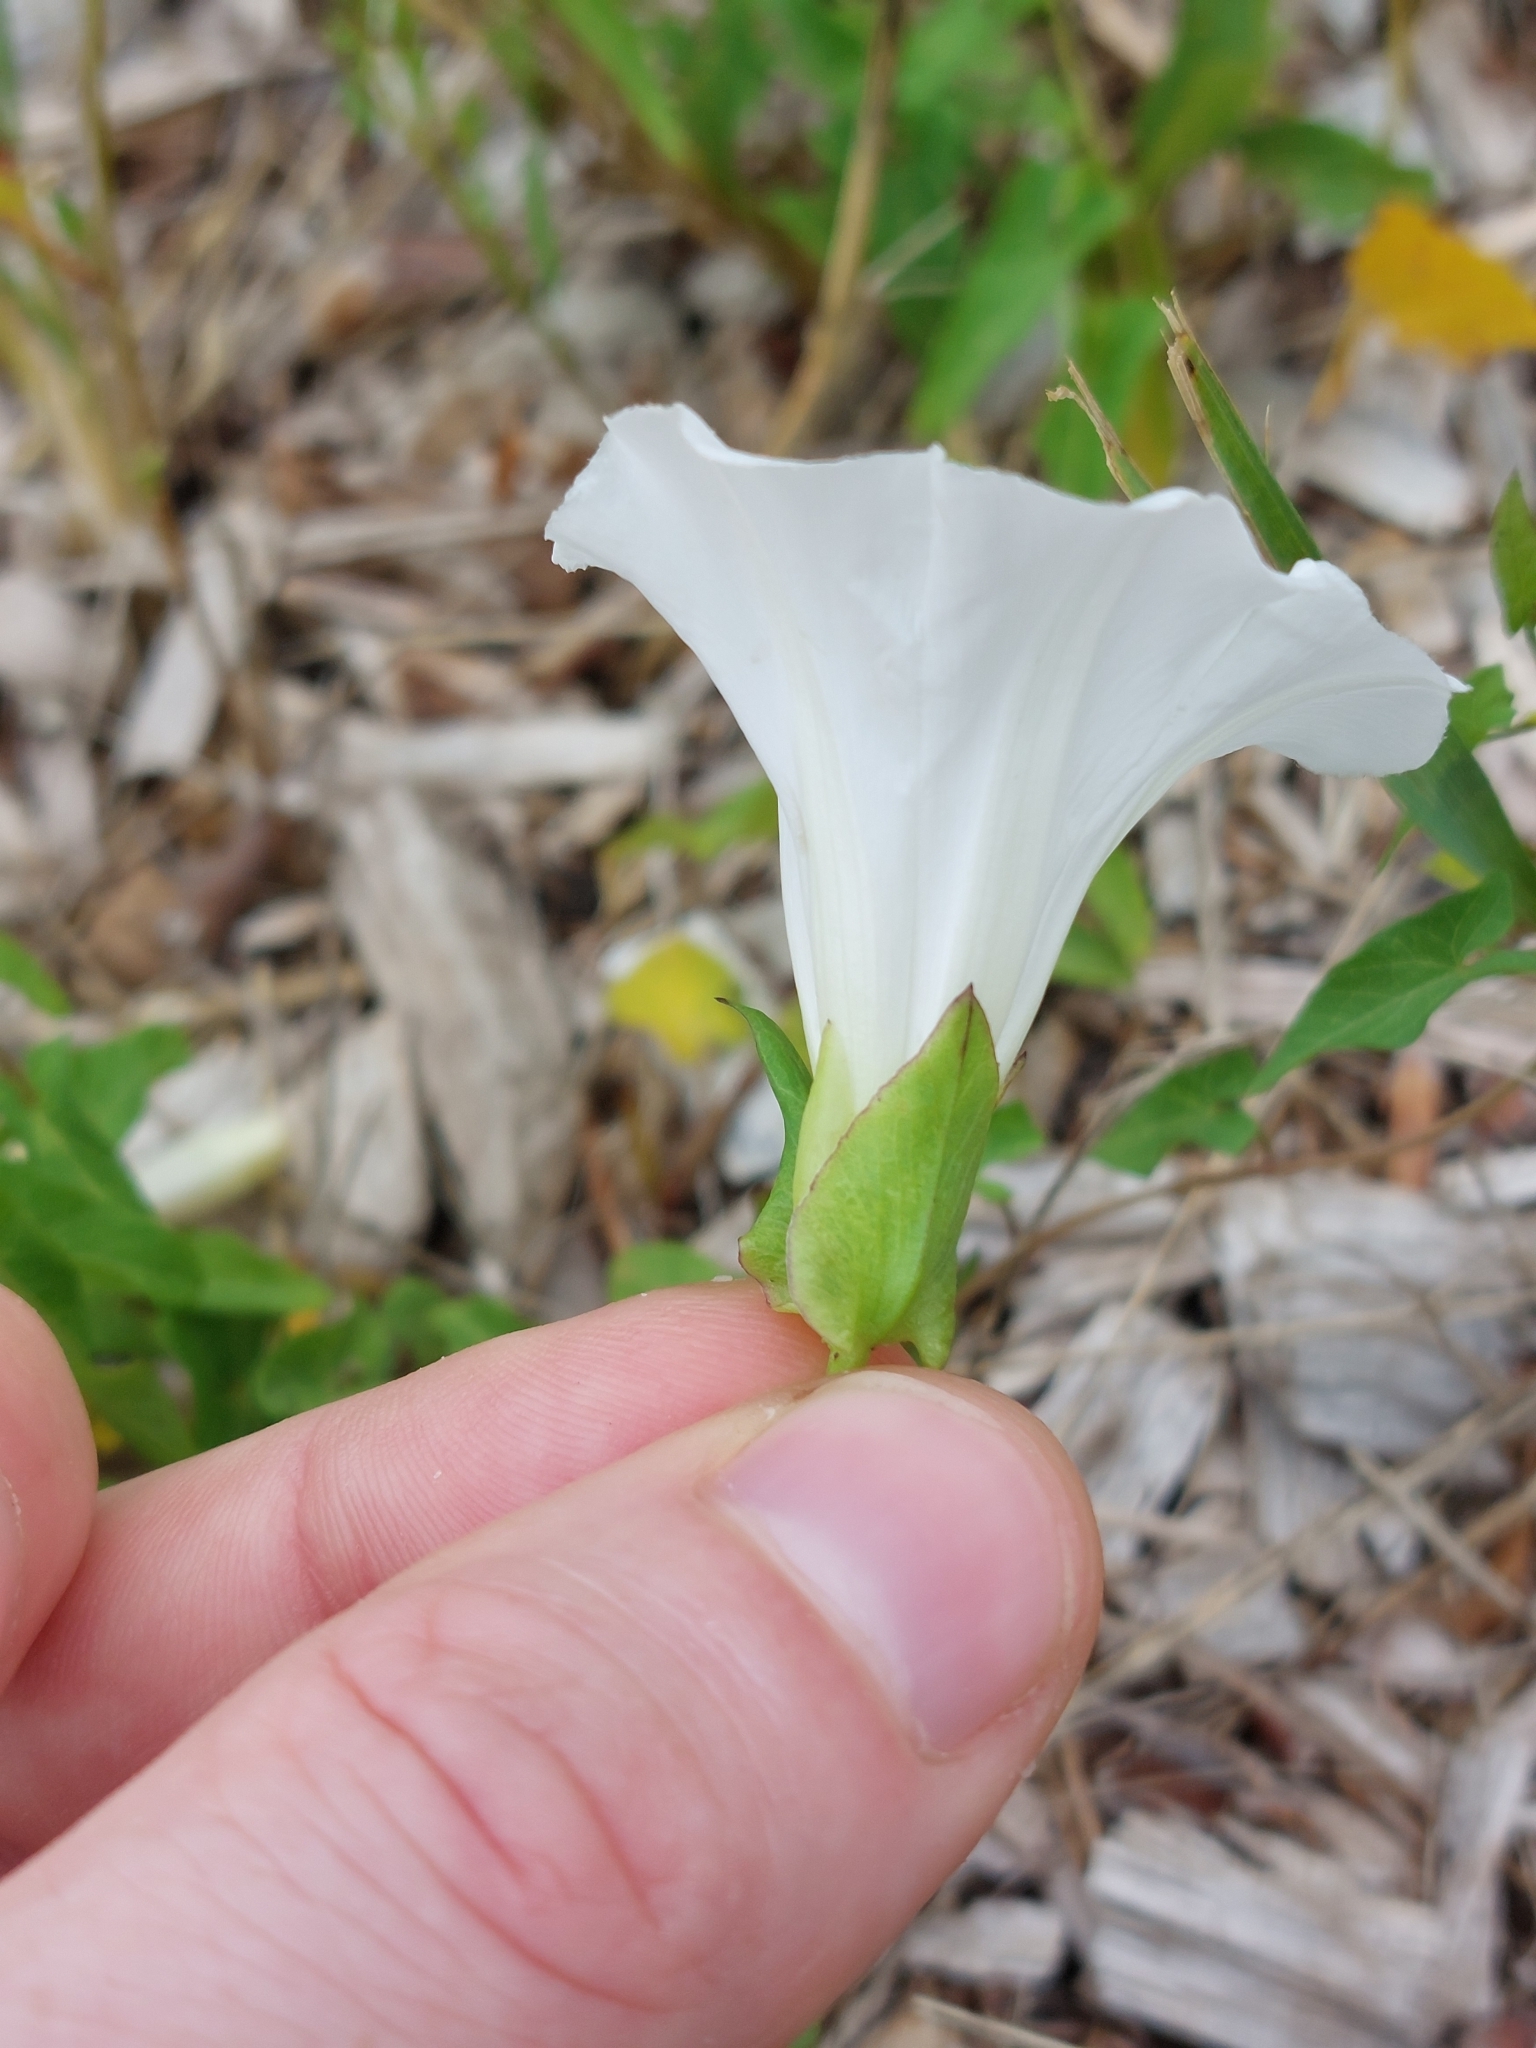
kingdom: Plantae
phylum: Tracheophyta
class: Magnoliopsida
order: Solanales
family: Convolvulaceae
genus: Calystegia
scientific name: Calystegia sepium
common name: Hedge bindweed
